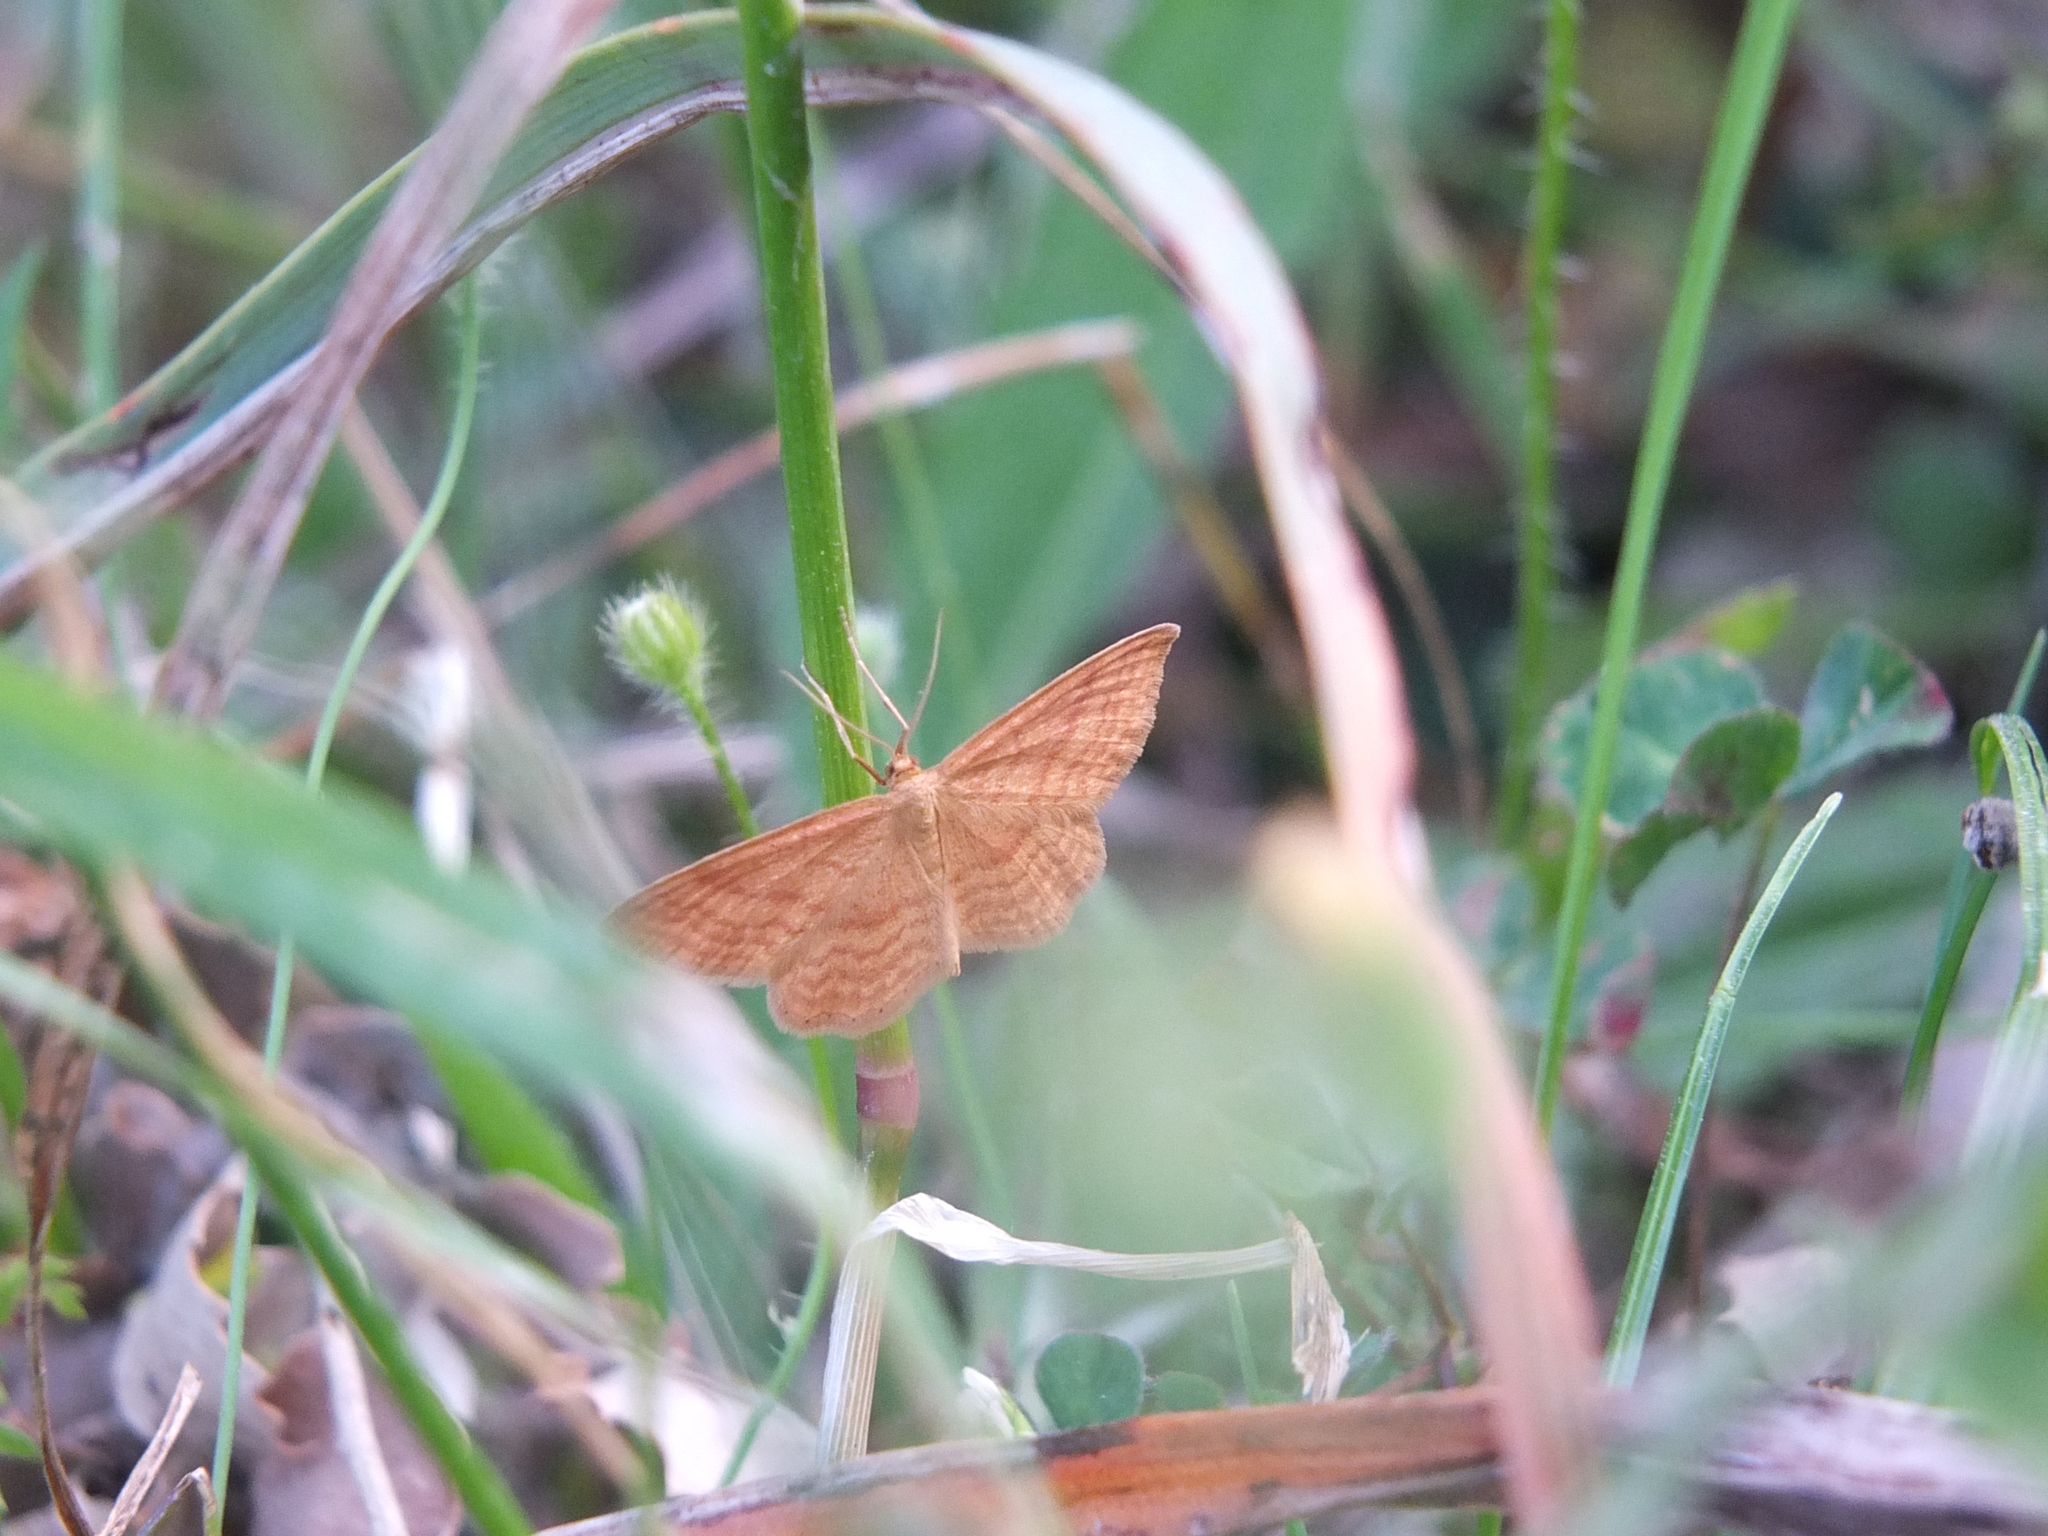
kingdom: Animalia
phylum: Arthropoda
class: Insecta
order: Lepidoptera
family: Geometridae
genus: Idaea
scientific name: Idaea ochrata
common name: Bright wave
